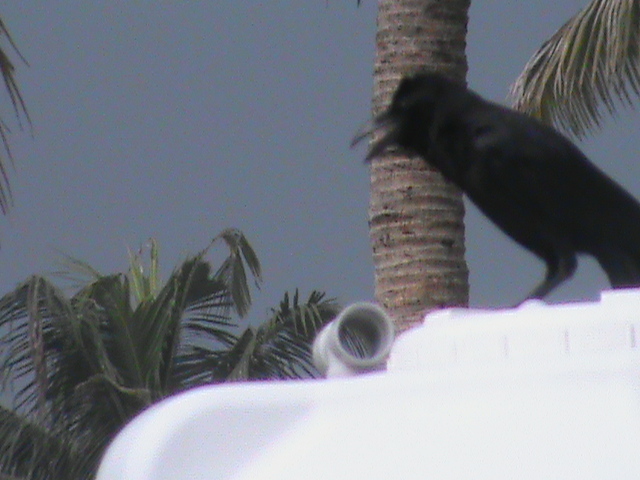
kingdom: Animalia
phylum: Chordata
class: Aves
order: Passeriformes
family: Corvidae
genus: Corvus
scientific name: Corvus macrorhynchos
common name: Large-billed crow
